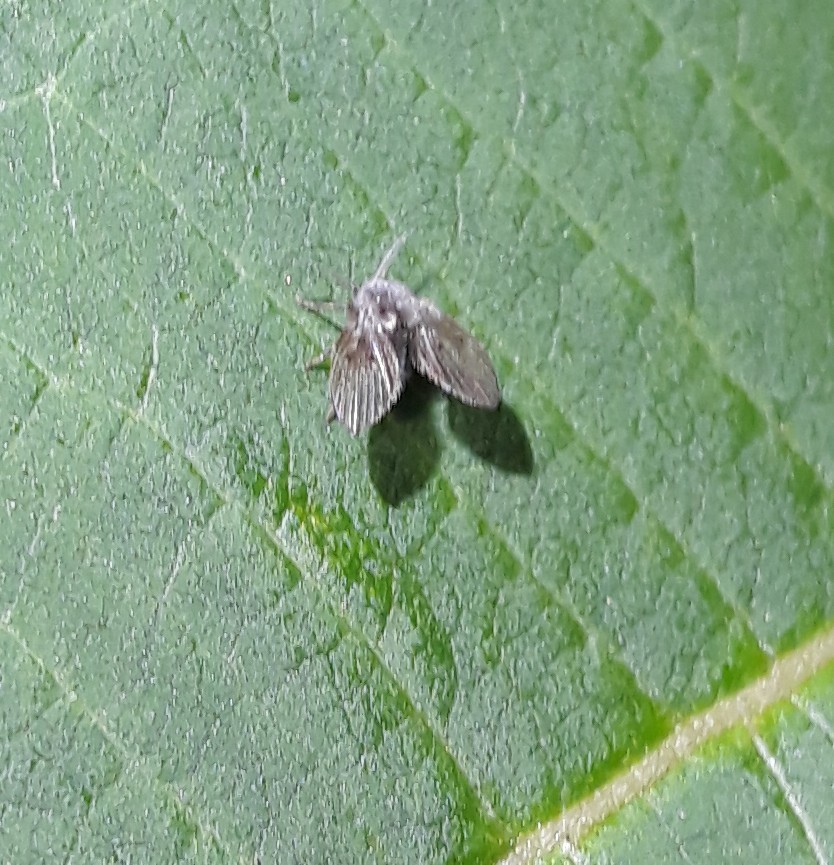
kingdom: Animalia
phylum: Arthropoda
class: Insecta
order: Diptera
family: Psychodidae
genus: Clogmia
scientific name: Clogmia albipunctatus
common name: White-spotted moth fly
